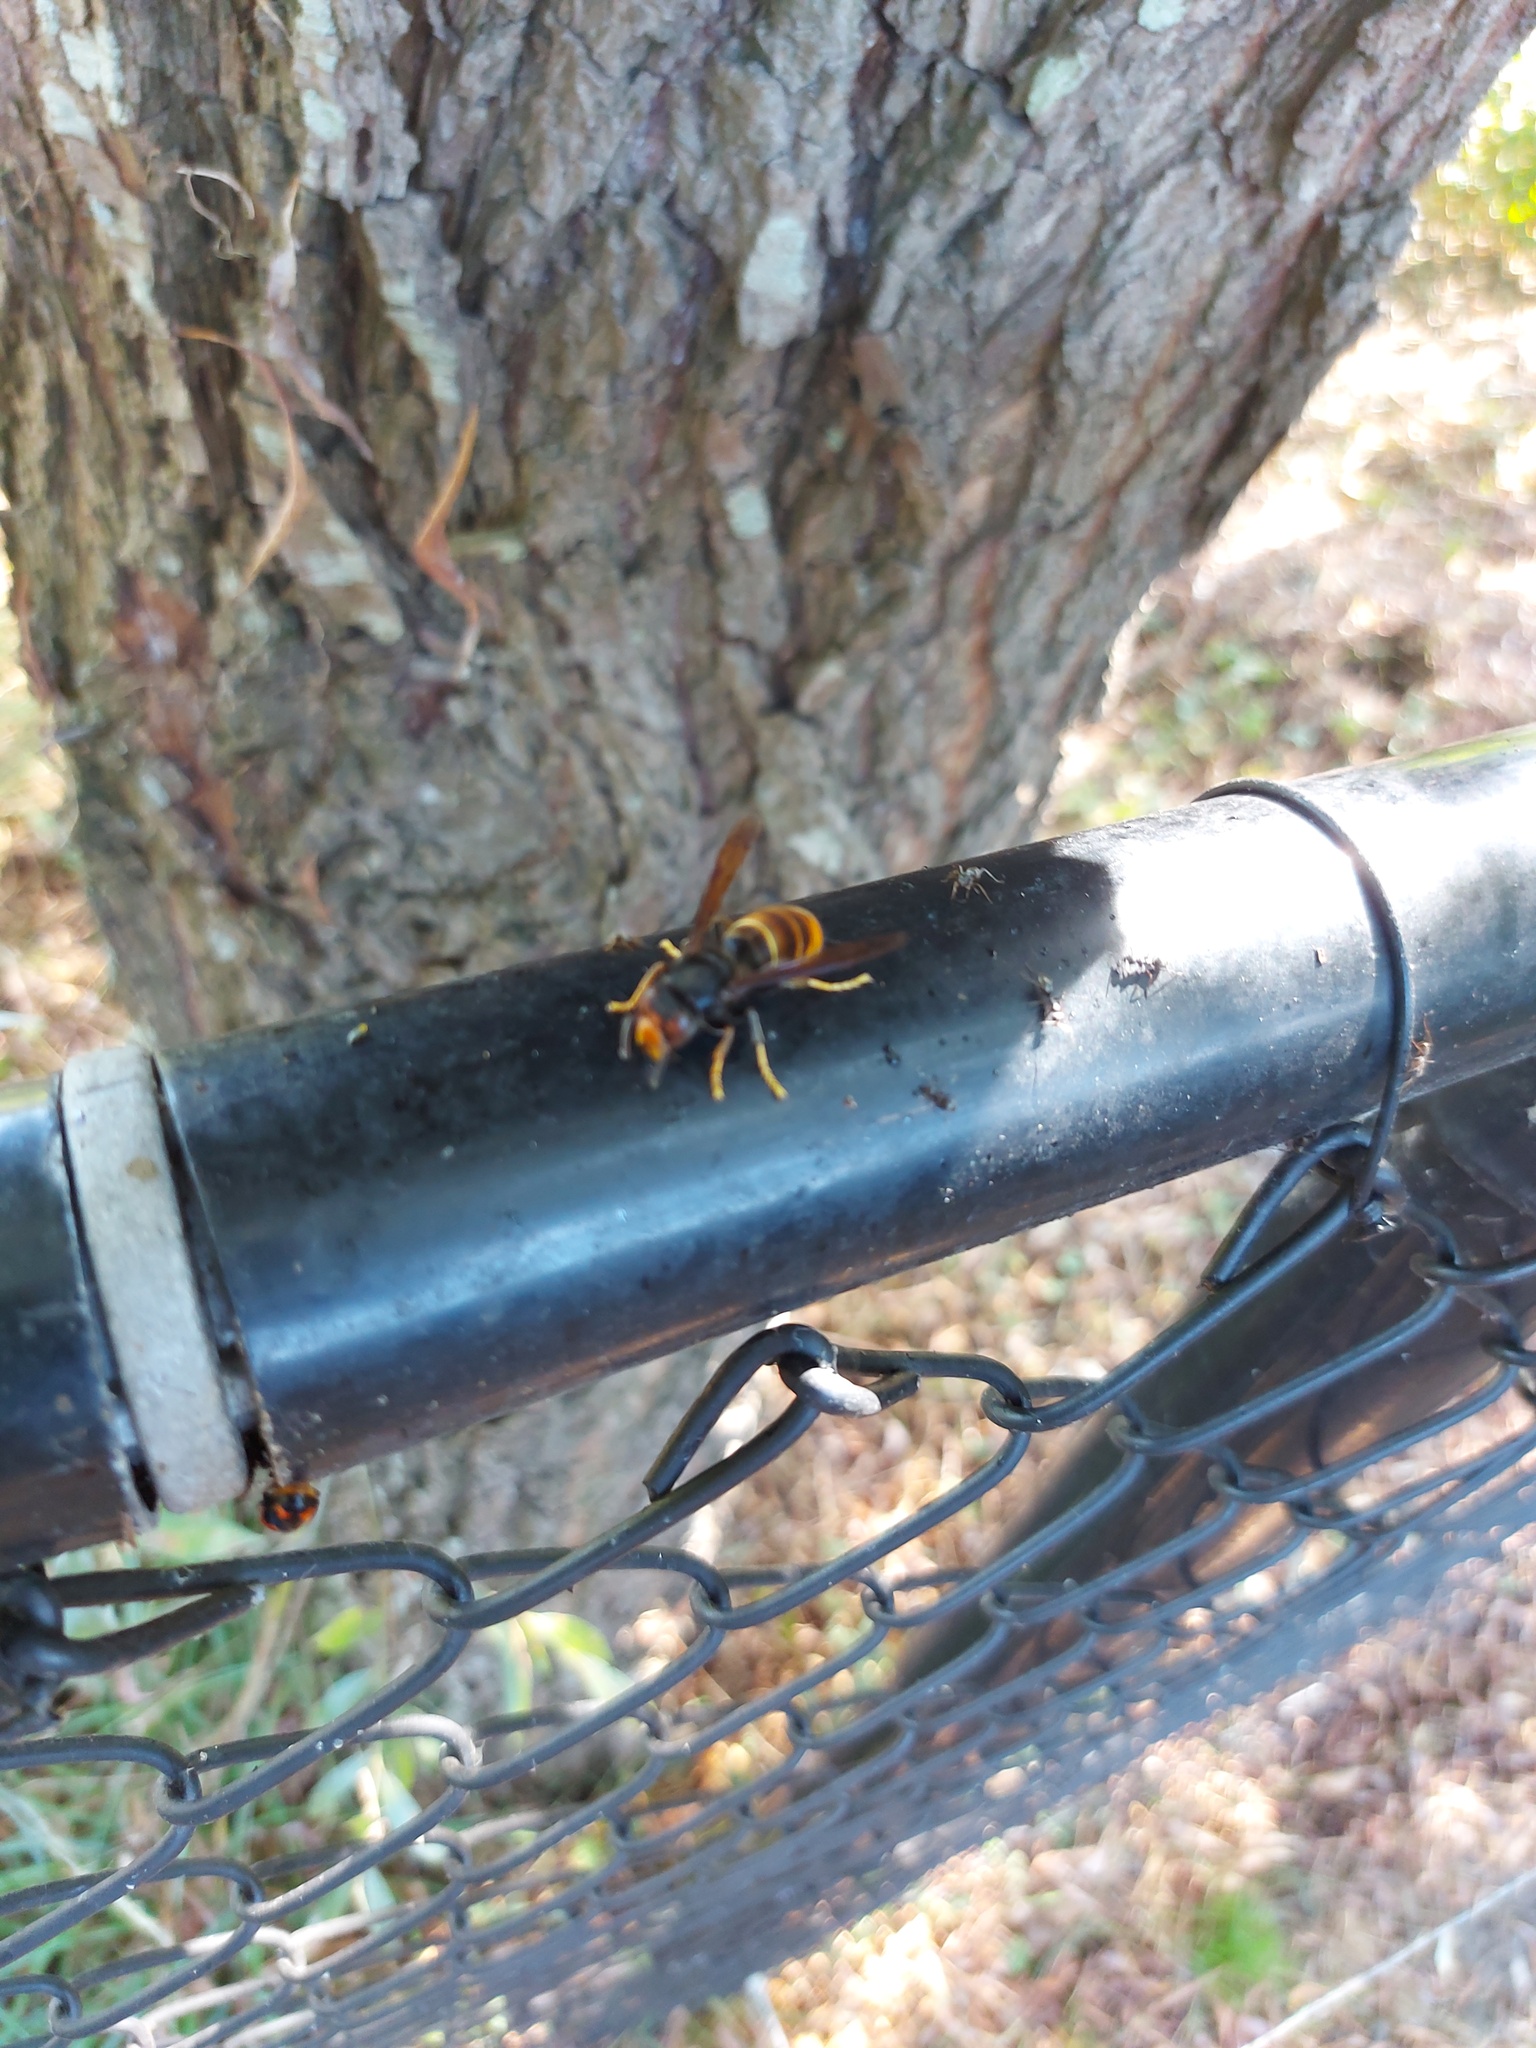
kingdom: Animalia
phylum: Arthropoda
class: Insecta
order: Hymenoptera
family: Vespidae
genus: Vespa
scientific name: Vespa velutina
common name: Asian hornet
